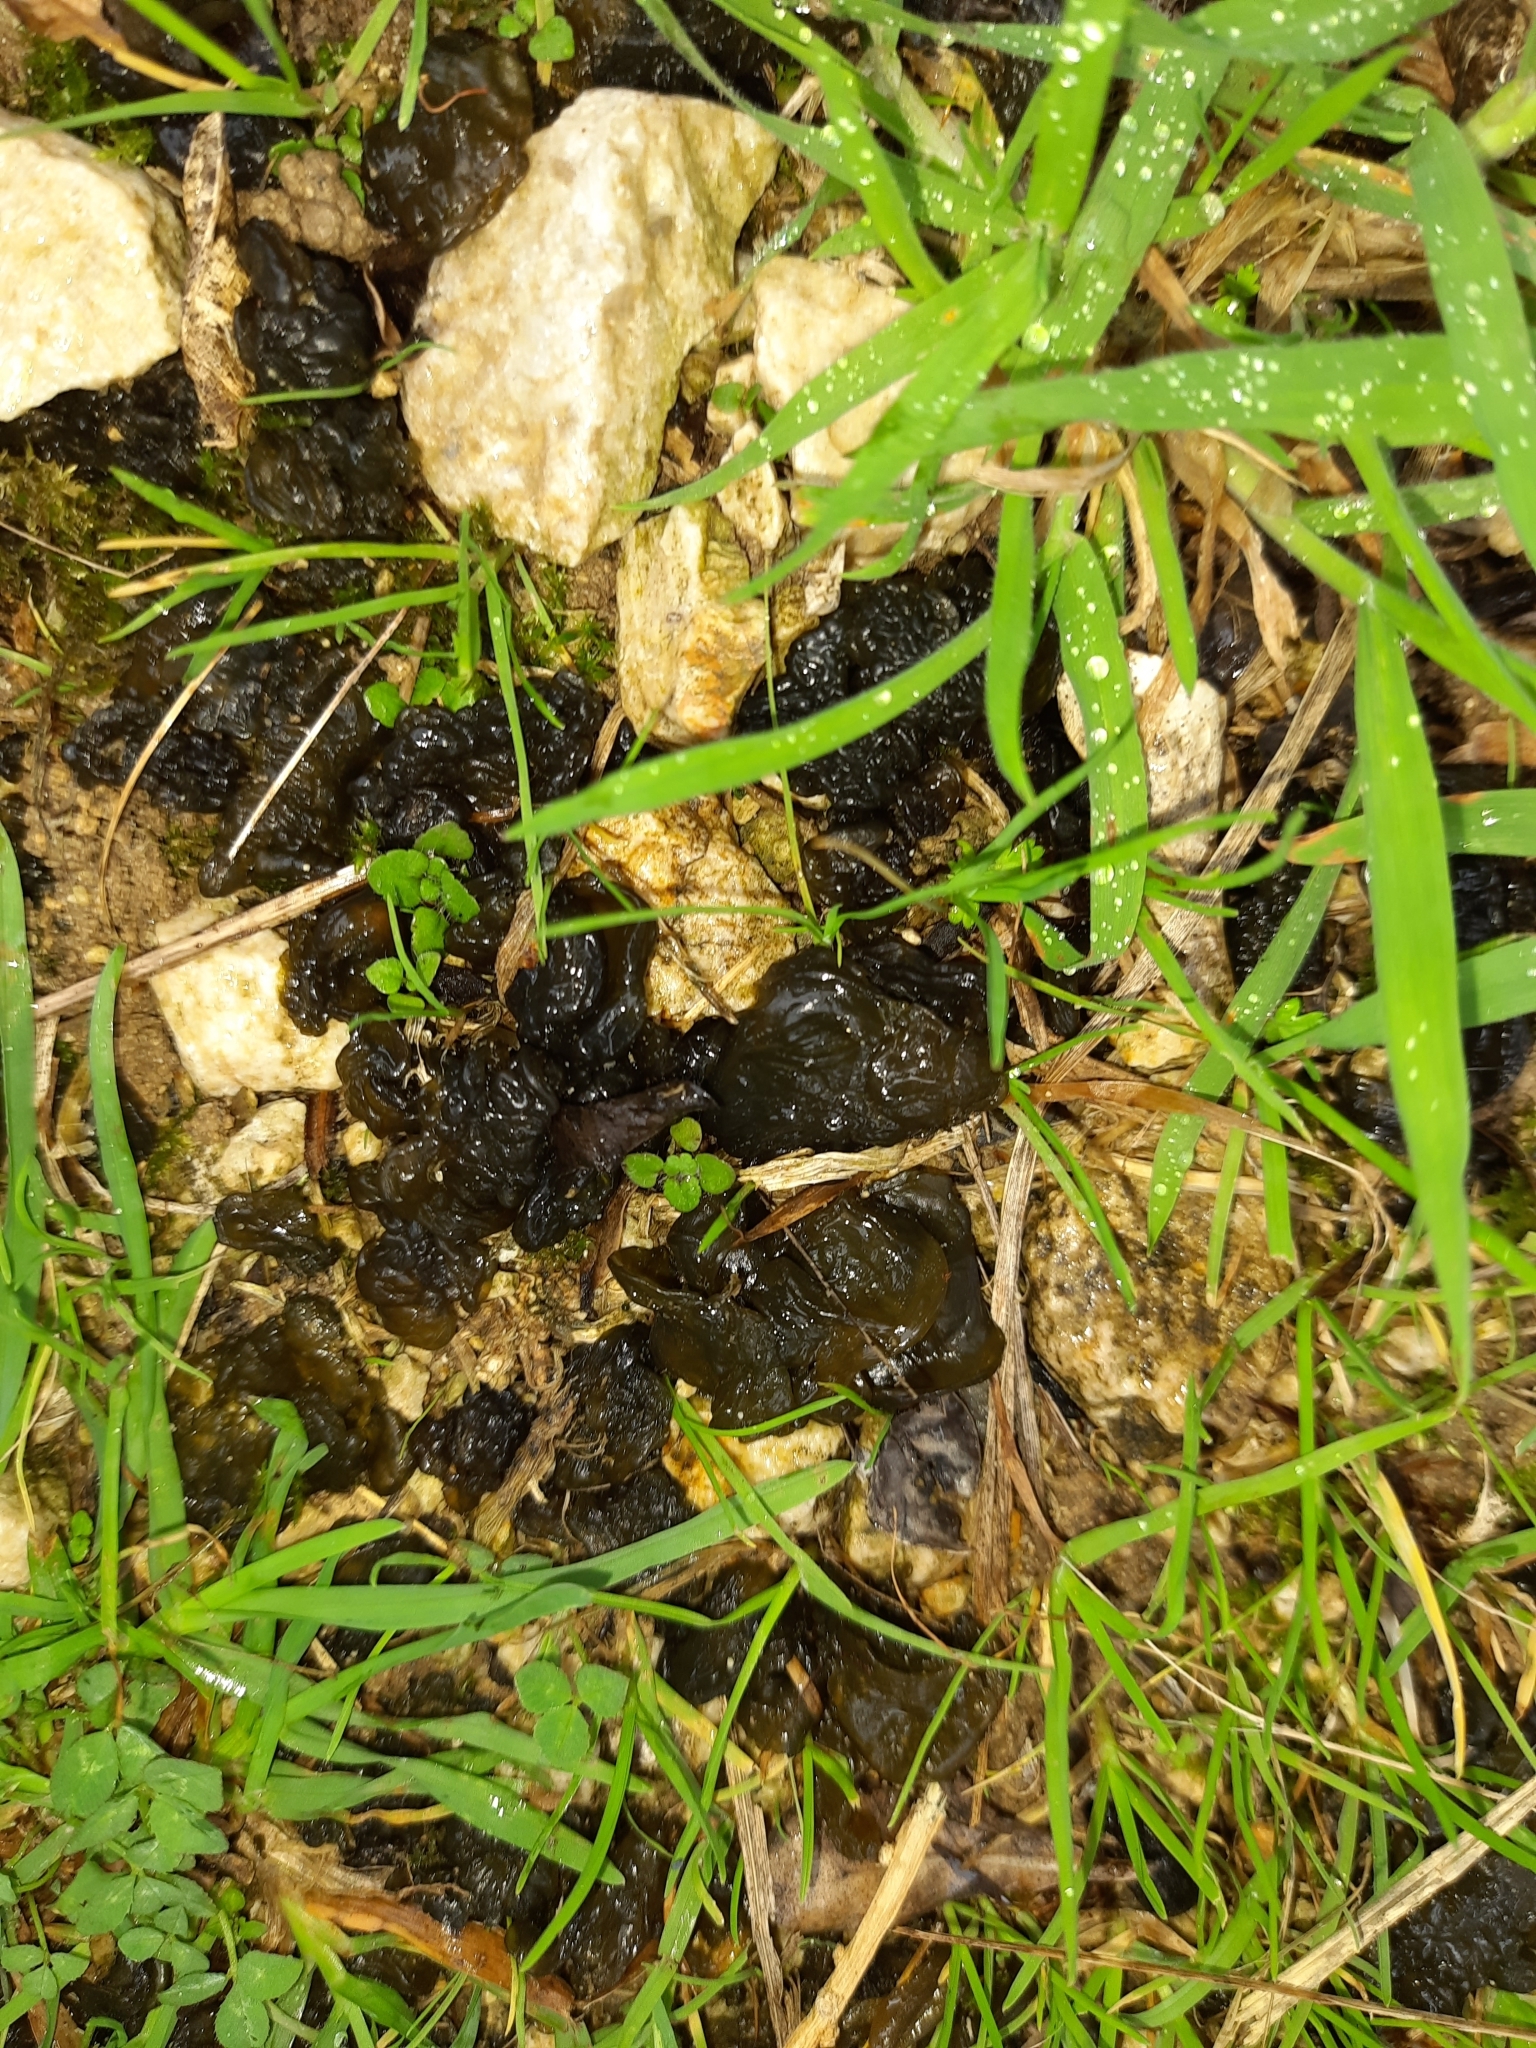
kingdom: Bacteria
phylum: Cyanobacteria
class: Cyanobacteriia
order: Cyanobacteriales
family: Nostocaceae
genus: Nostoc
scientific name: Nostoc commune
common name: Star jelly
